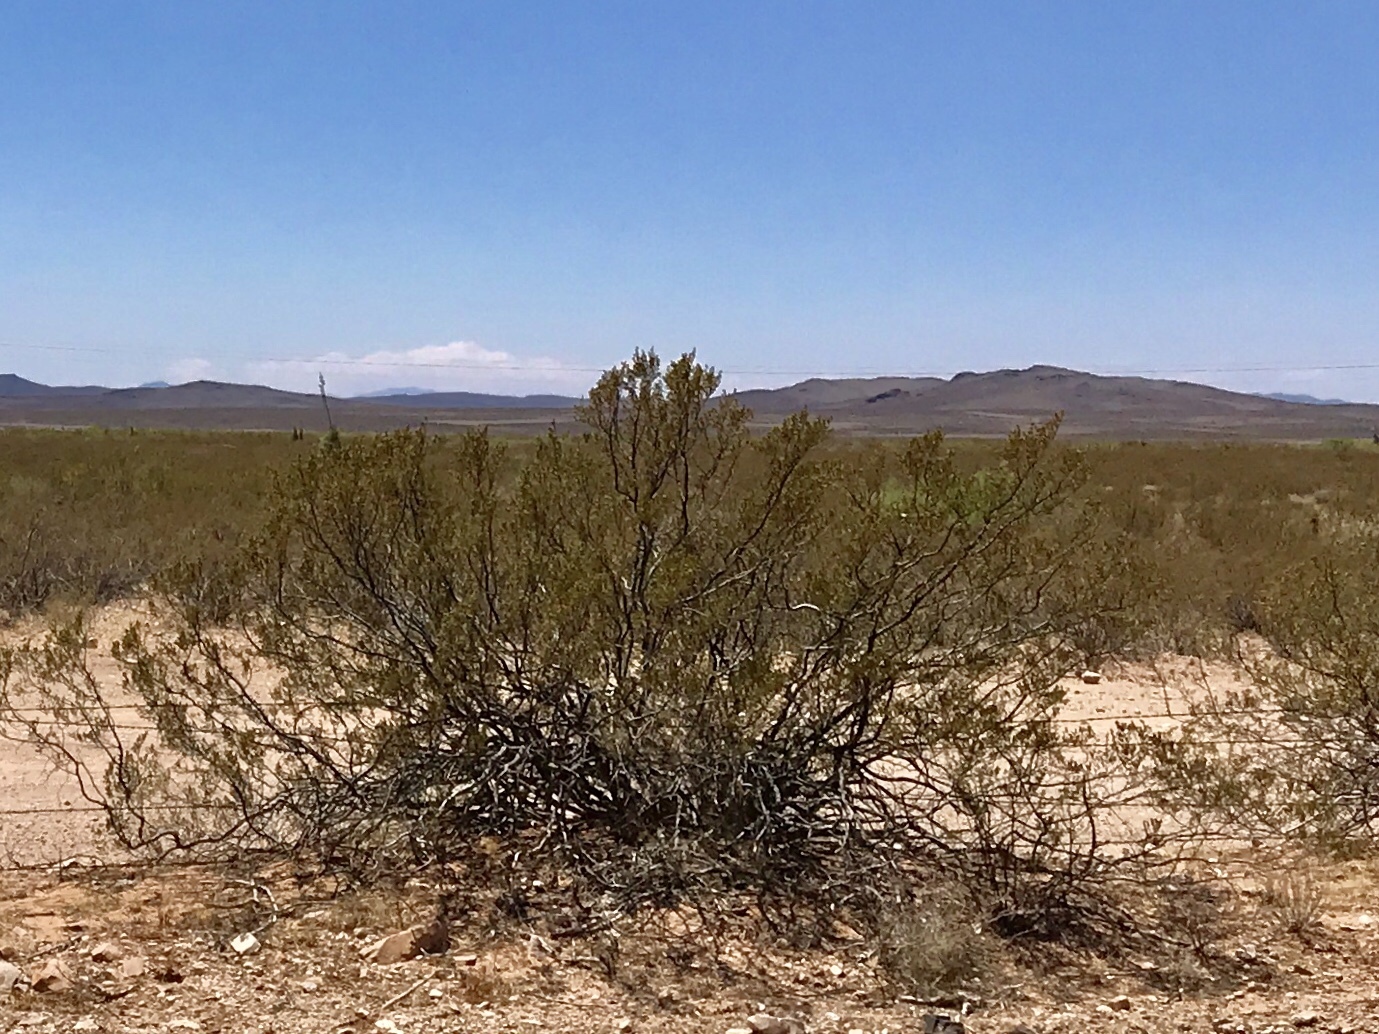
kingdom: Plantae
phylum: Tracheophyta
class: Magnoliopsida
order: Zygophyllales
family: Zygophyllaceae
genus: Larrea
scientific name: Larrea tridentata
